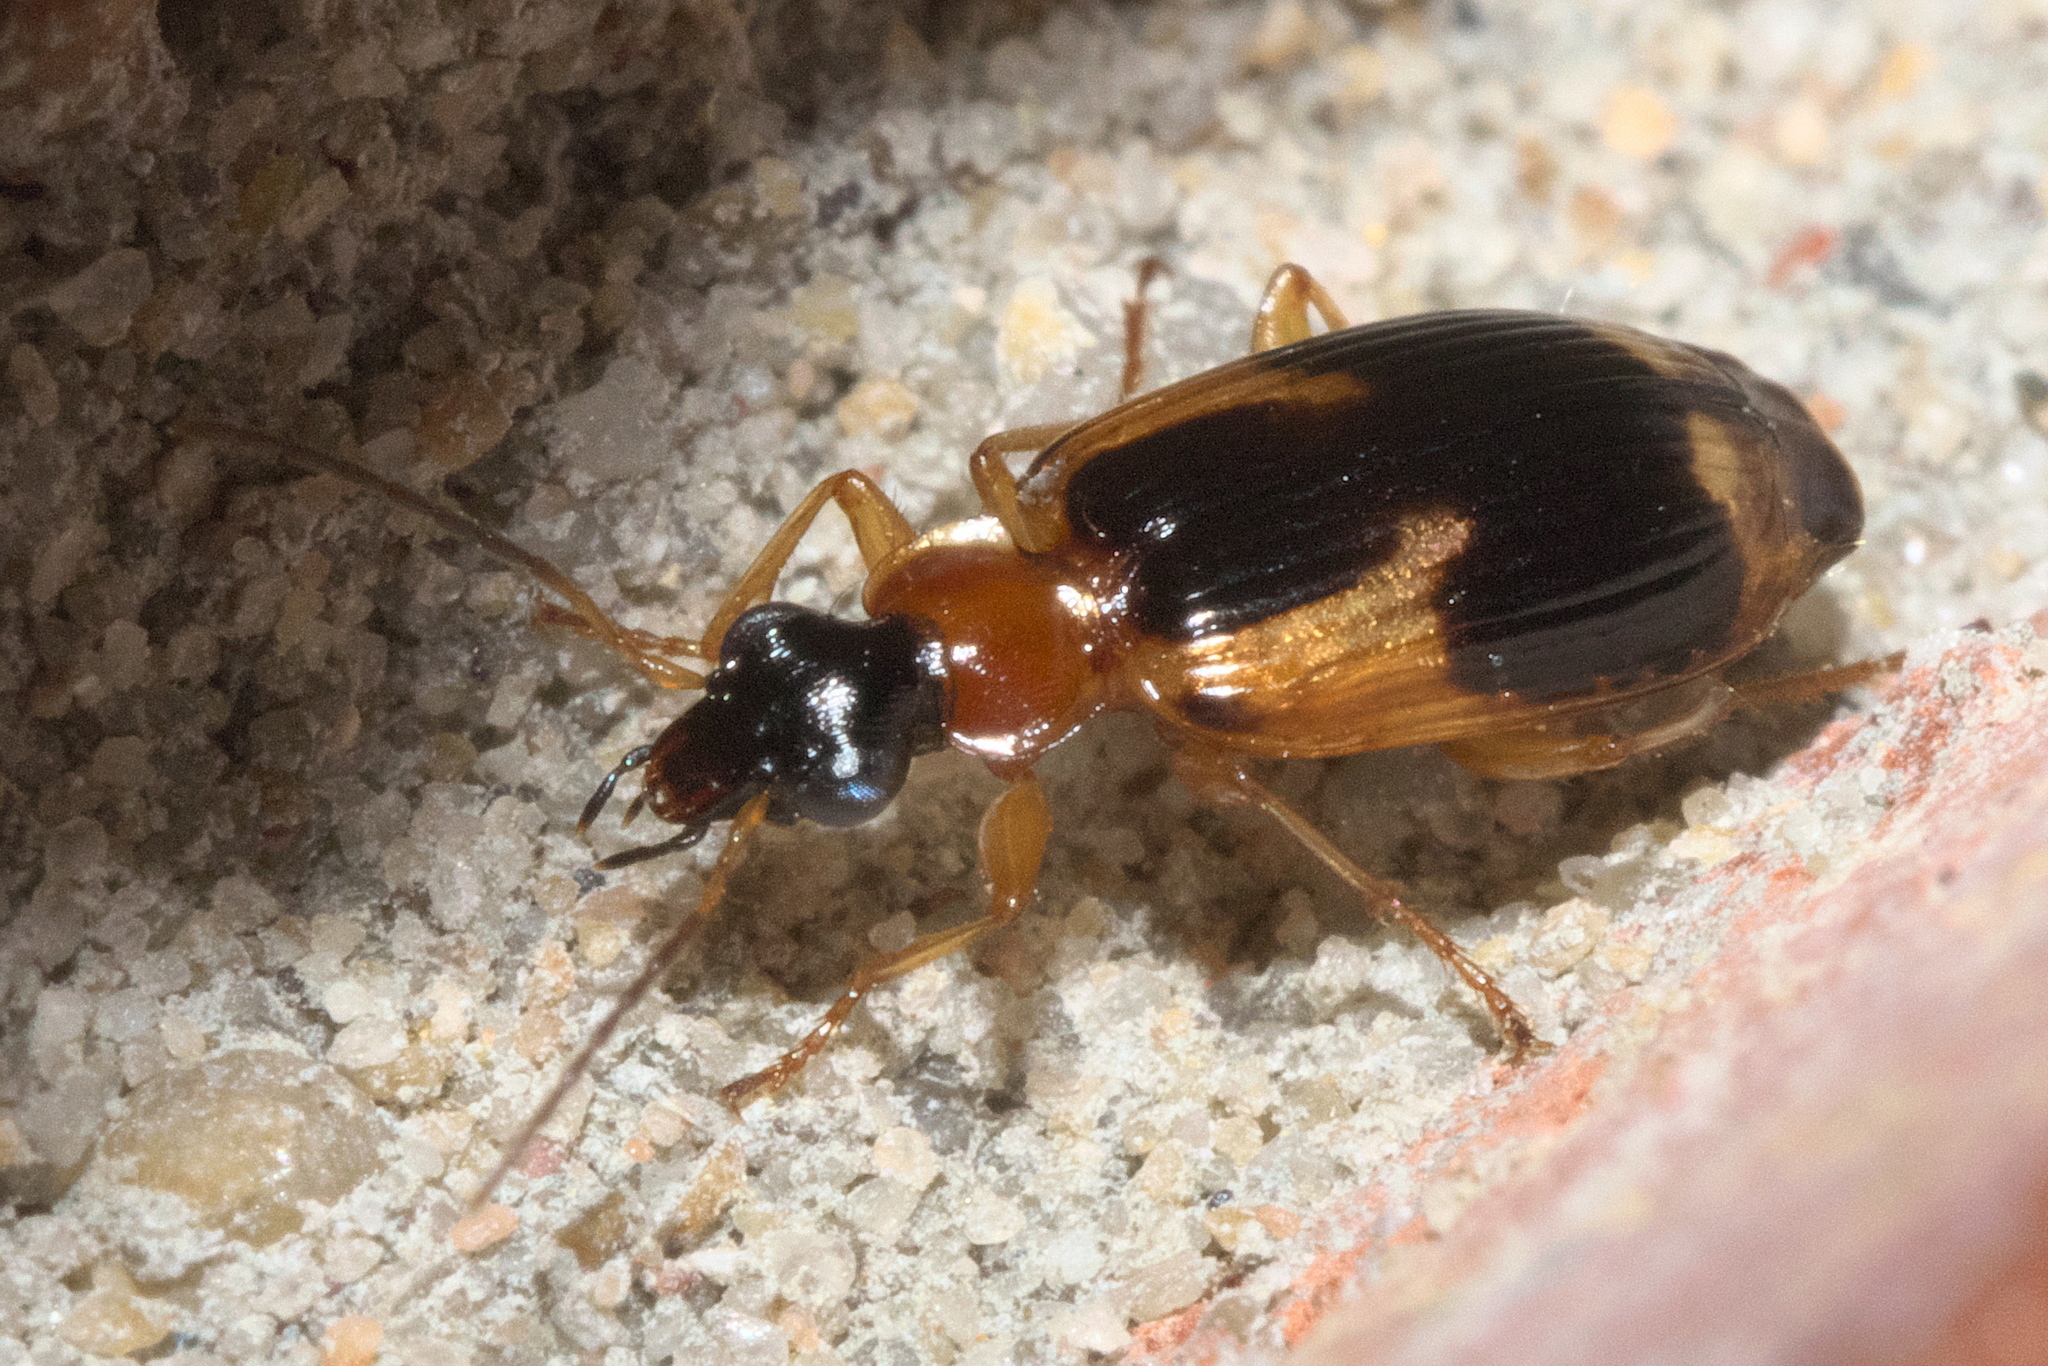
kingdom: Animalia
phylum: Arthropoda
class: Insecta
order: Coleoptera
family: Carabidae
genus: Lebia
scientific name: Lebia analis
